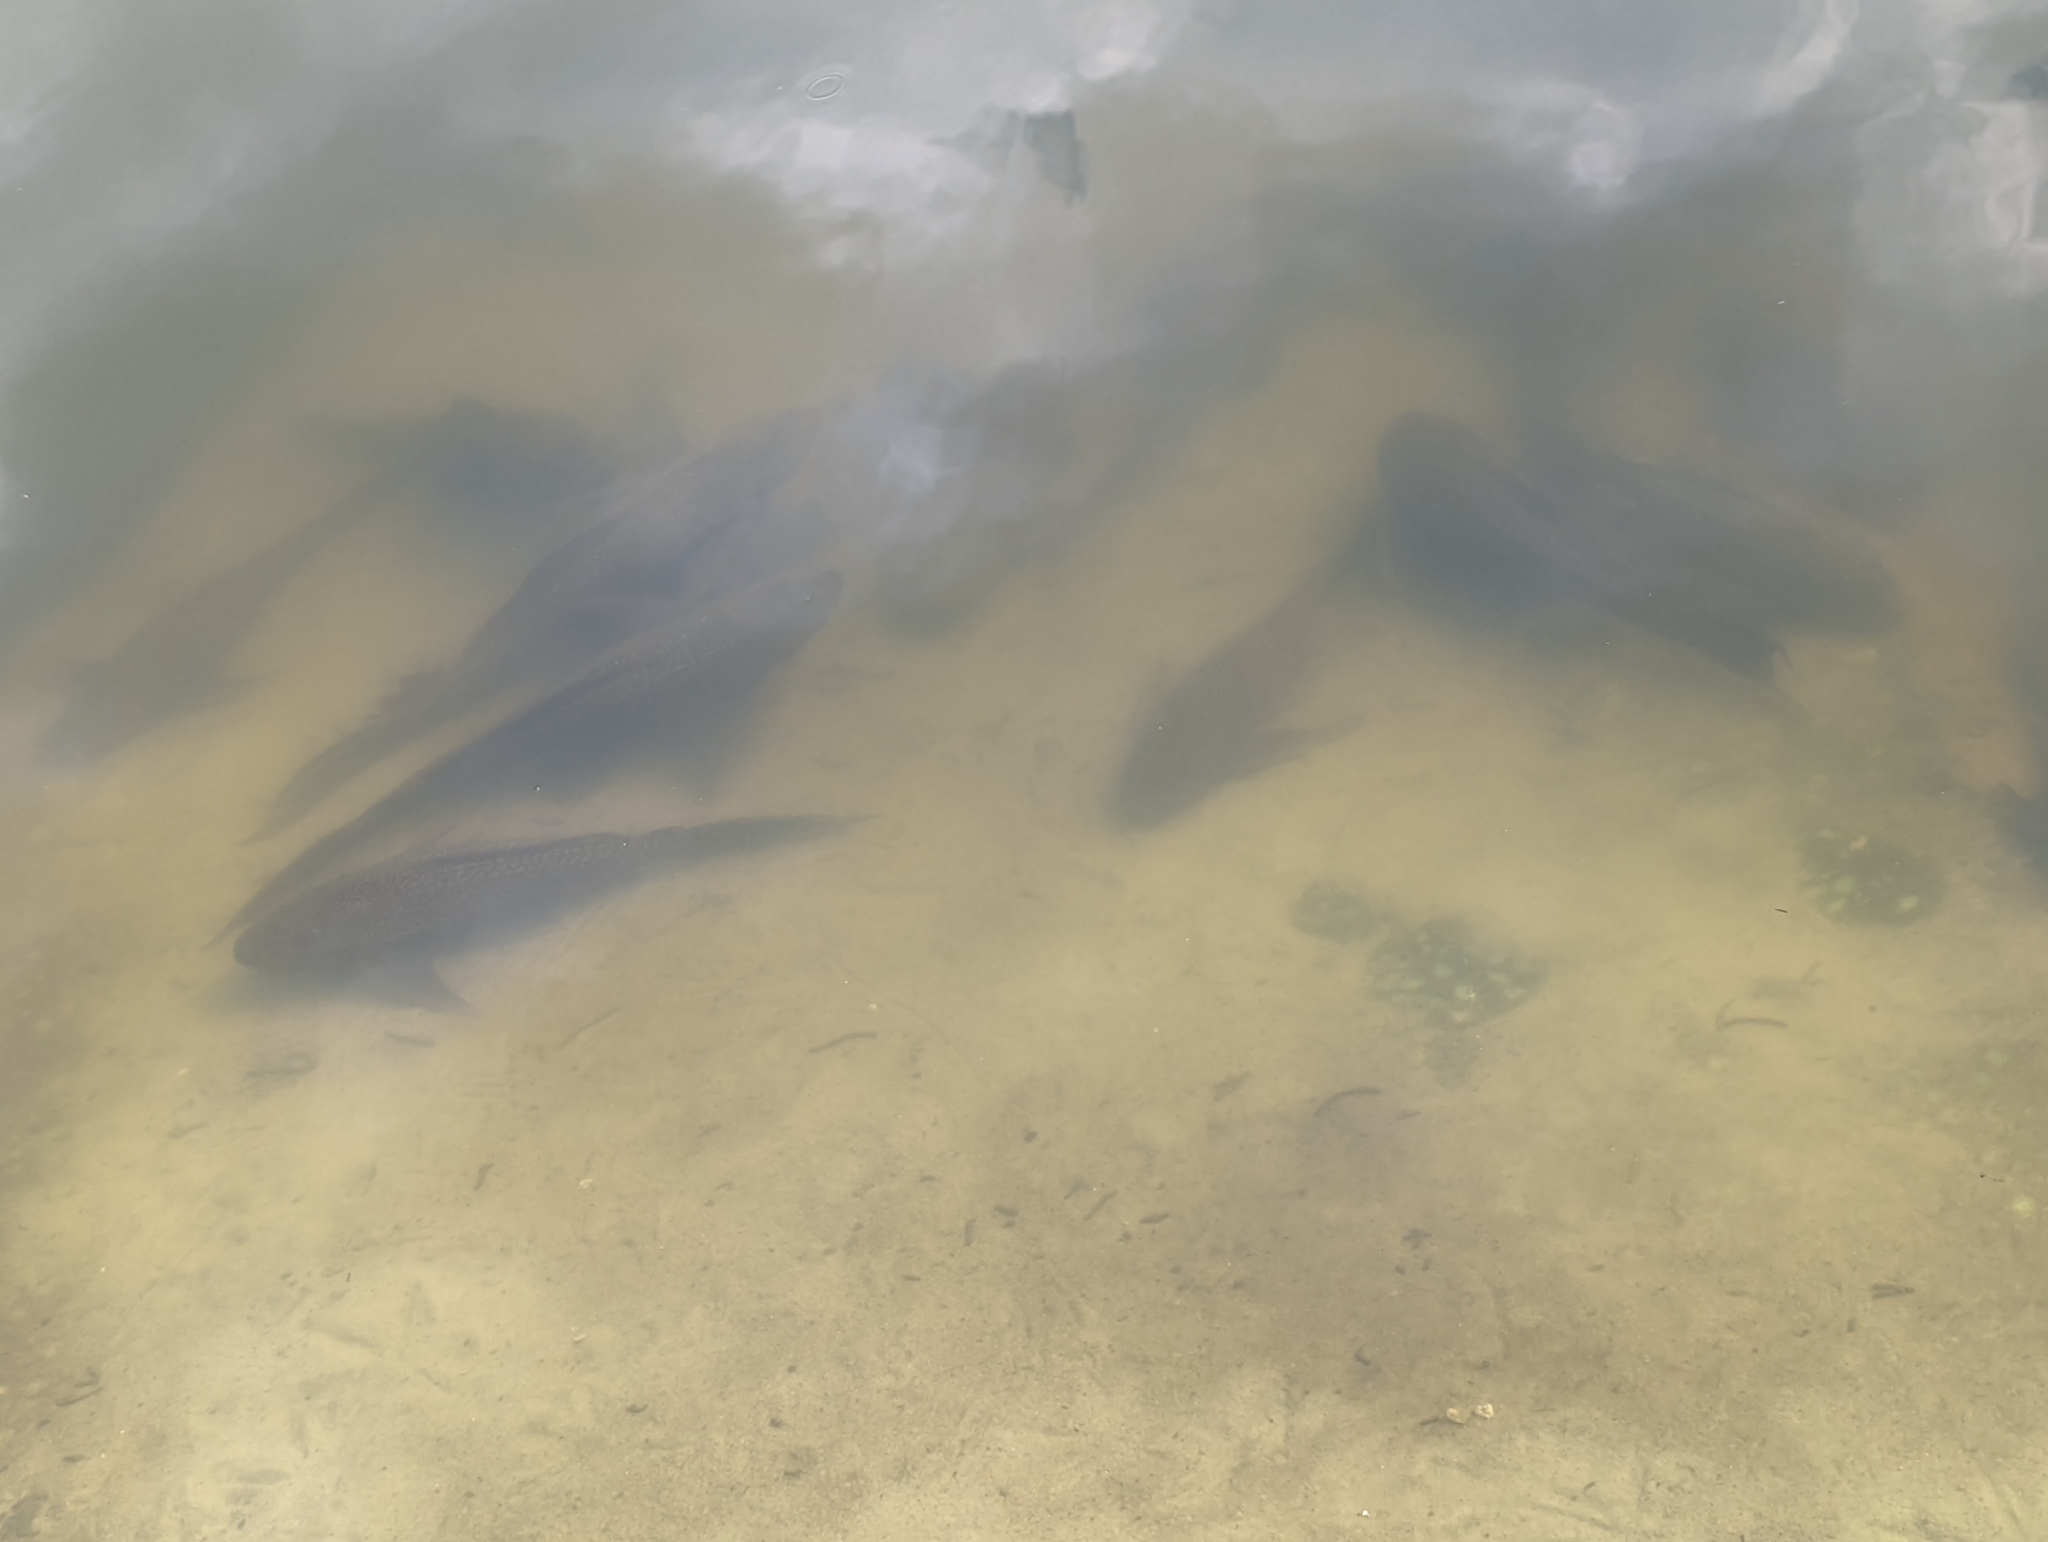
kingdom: Animalia
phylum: Chordata
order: Siluriformes
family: Loricariidae
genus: Pterygoplichthys
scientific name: Pterygoplichthys
